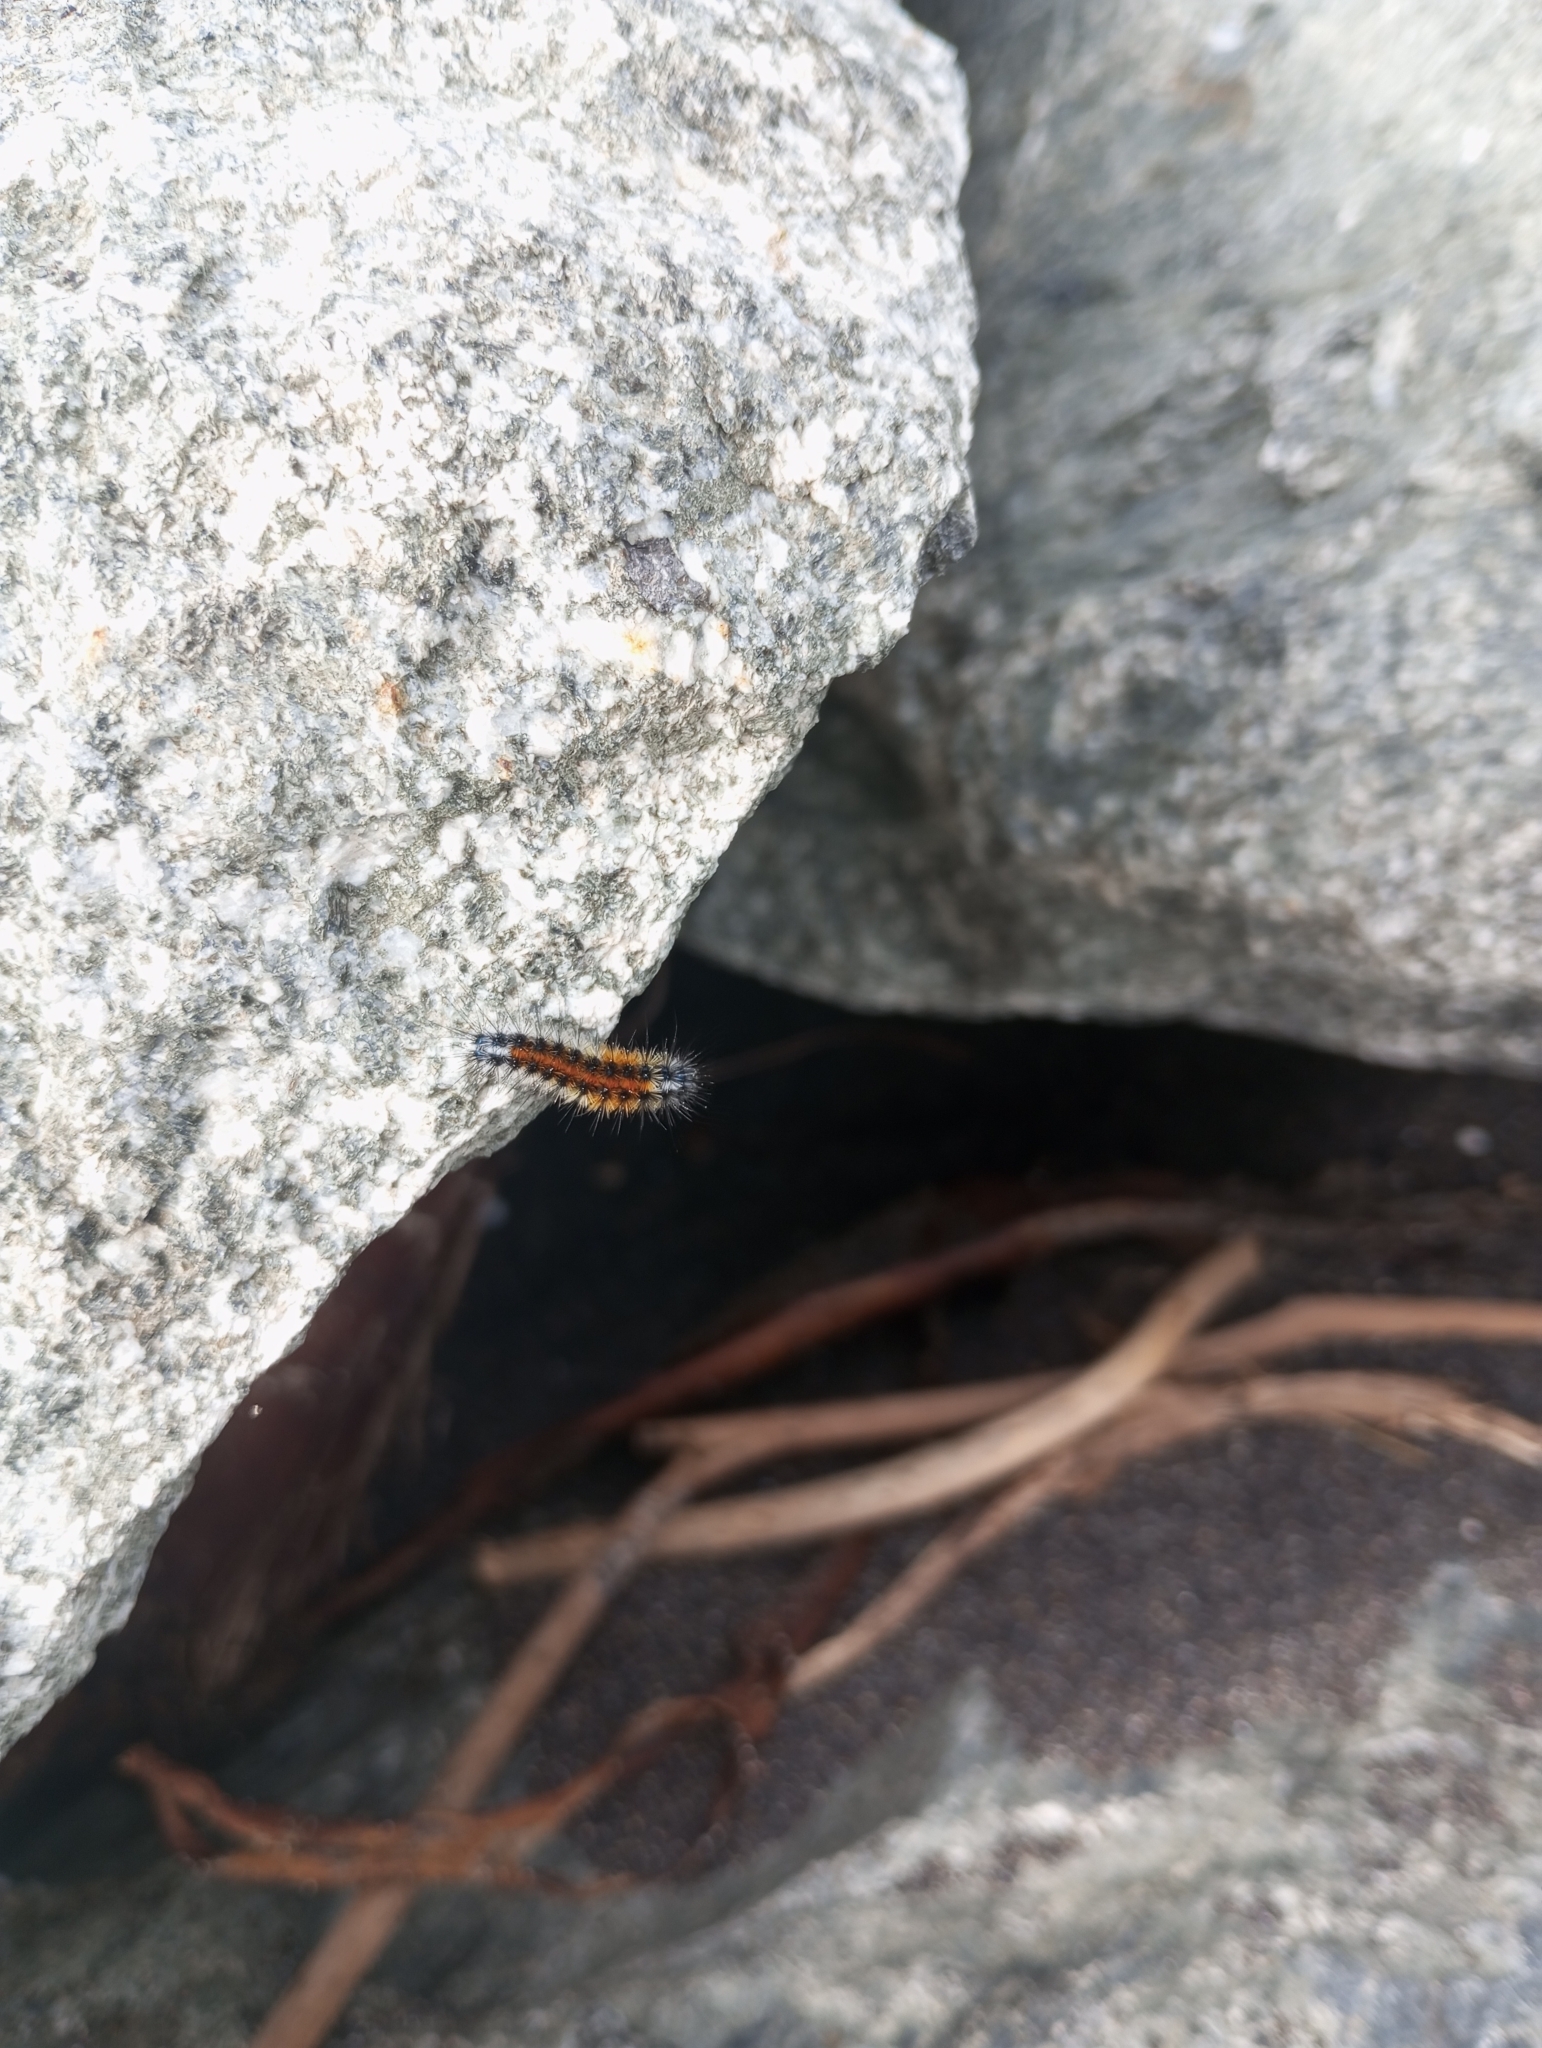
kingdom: Animalia
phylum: Arthropoda
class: Insecta
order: Lepidoptera
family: Erebidae
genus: Chilesia
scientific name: Chilesia
